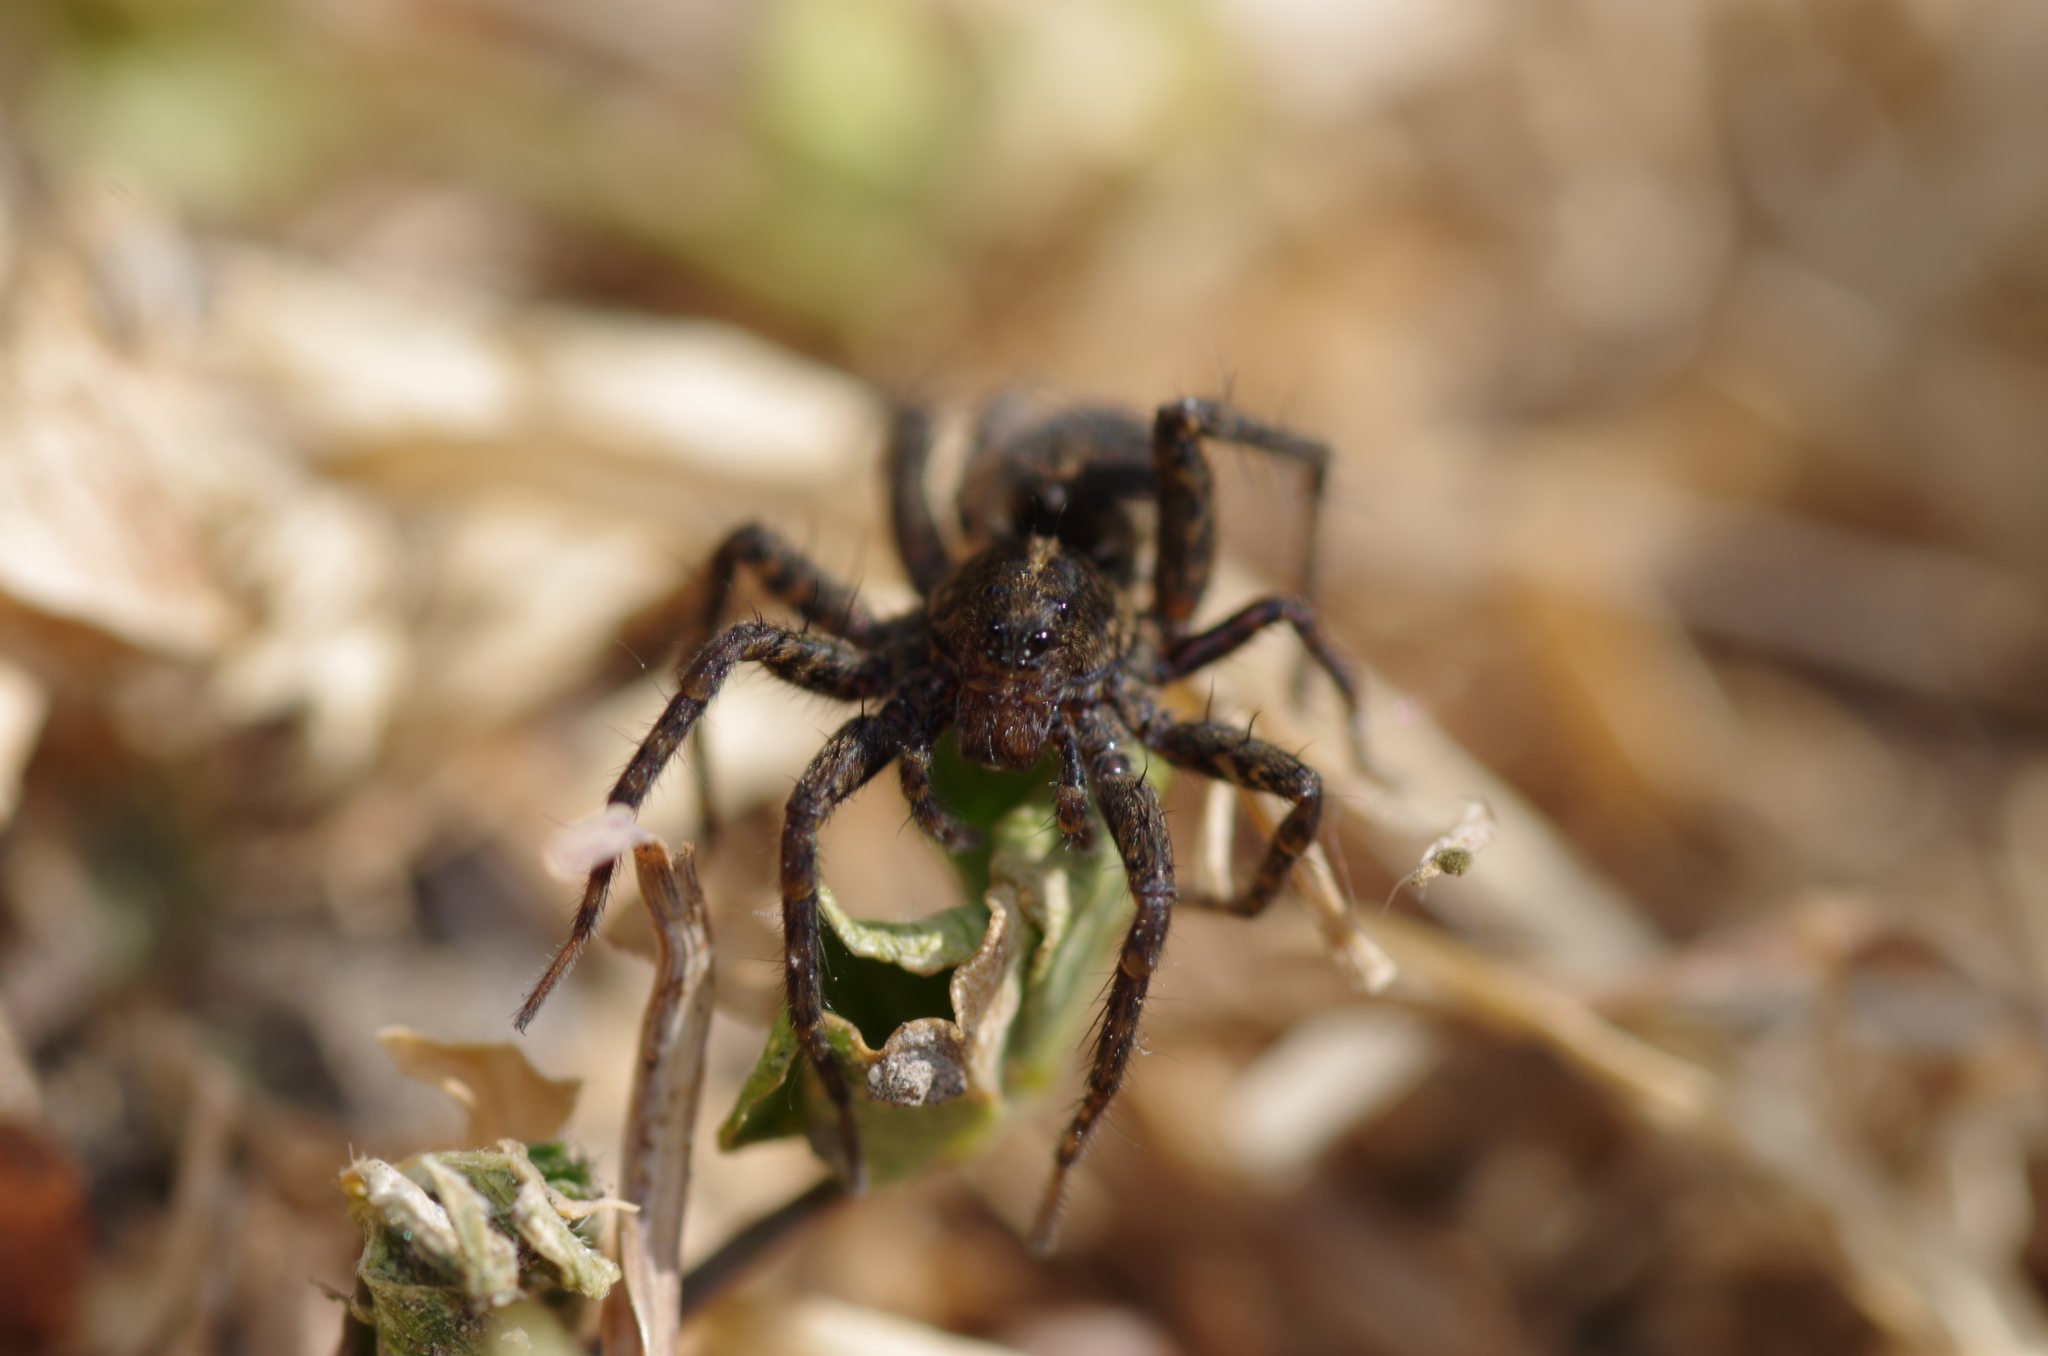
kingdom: Animalia
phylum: Arthropoda
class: Arachnida
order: Araneae
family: Lycosidae
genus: Pardosa
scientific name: Pardosa
